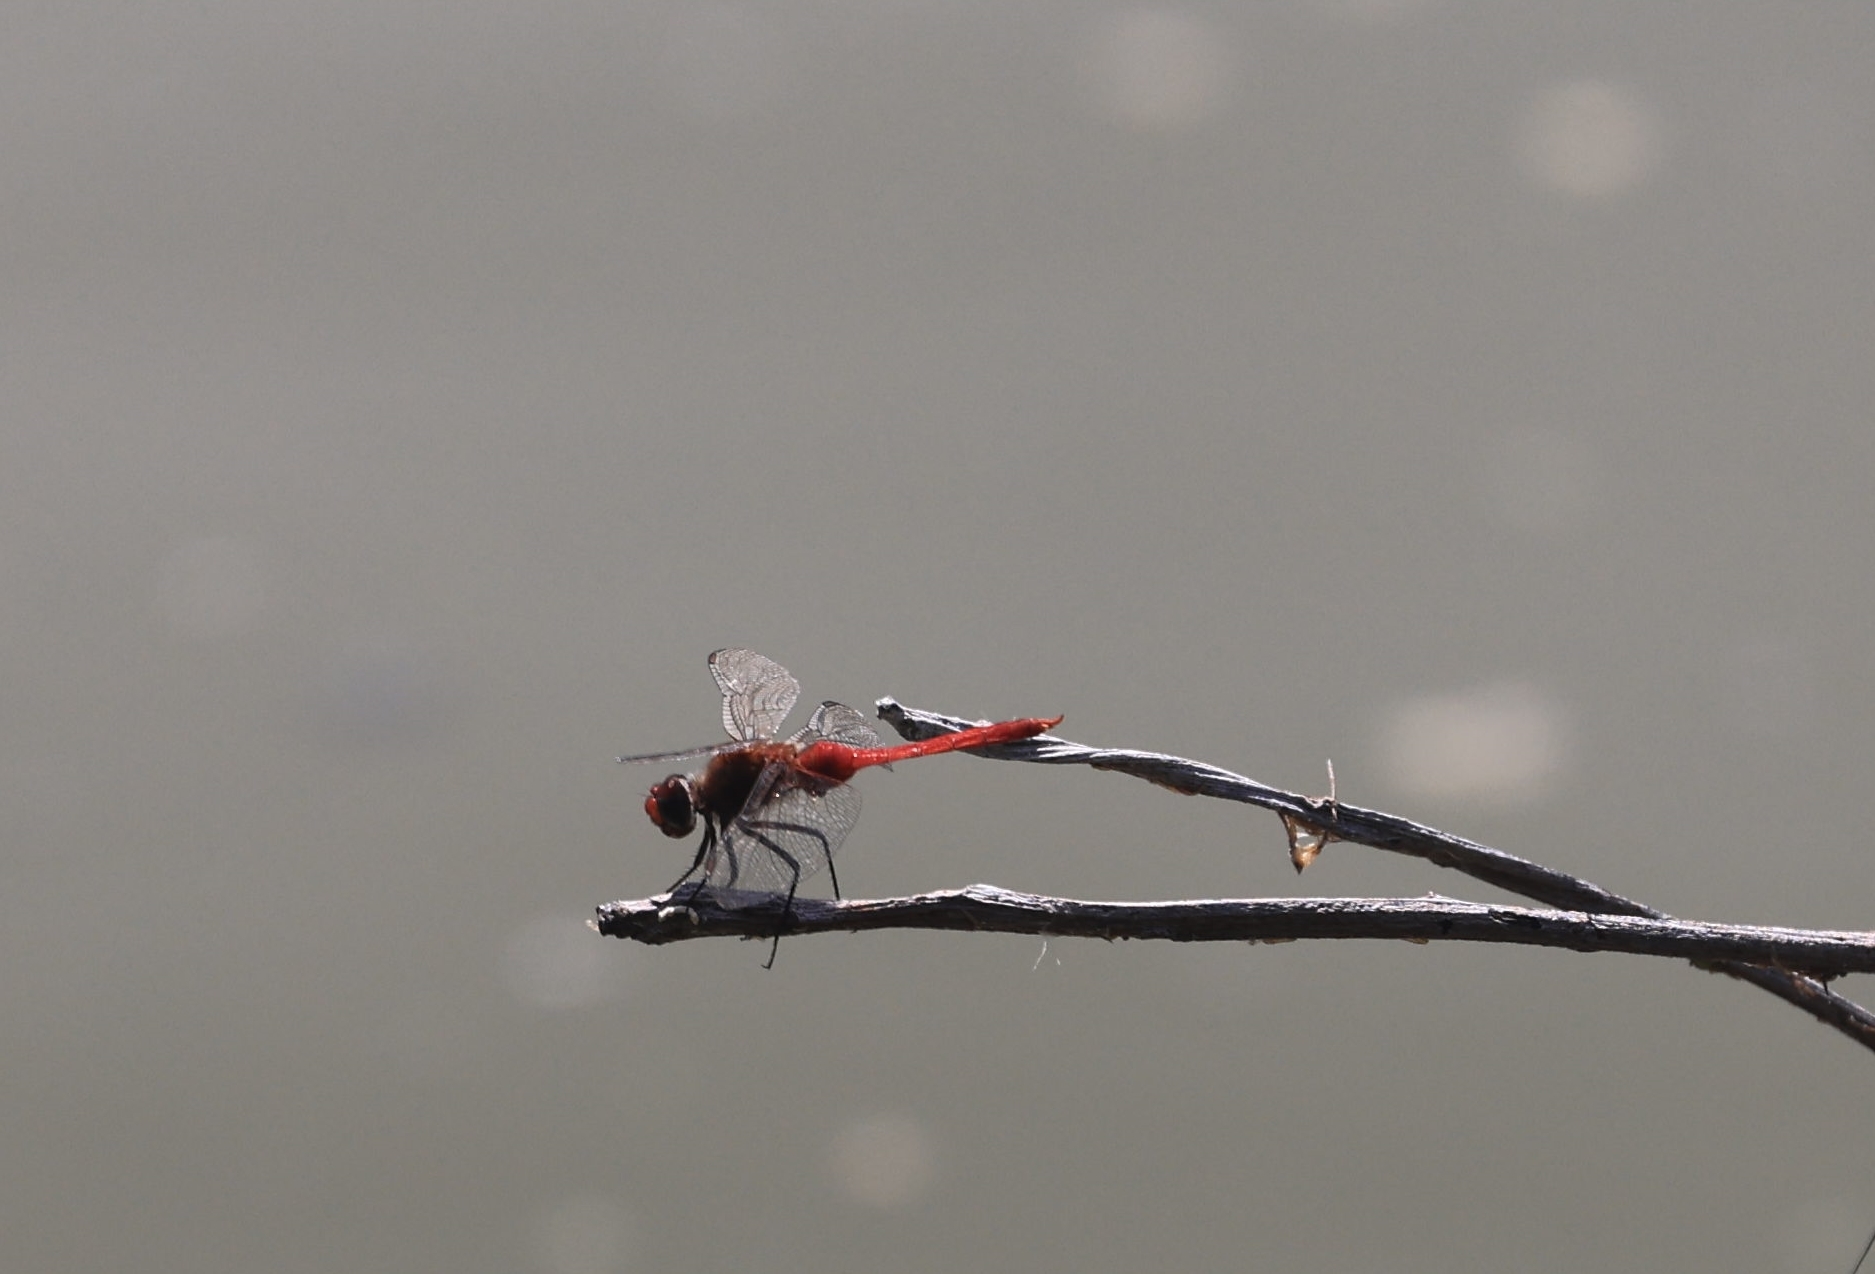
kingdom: Animalia
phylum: Arthropoda
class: Insecta
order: Odonata
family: Libellulidae
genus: Brachymesia
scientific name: Brachymesia furcata
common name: Red-taled pennant
